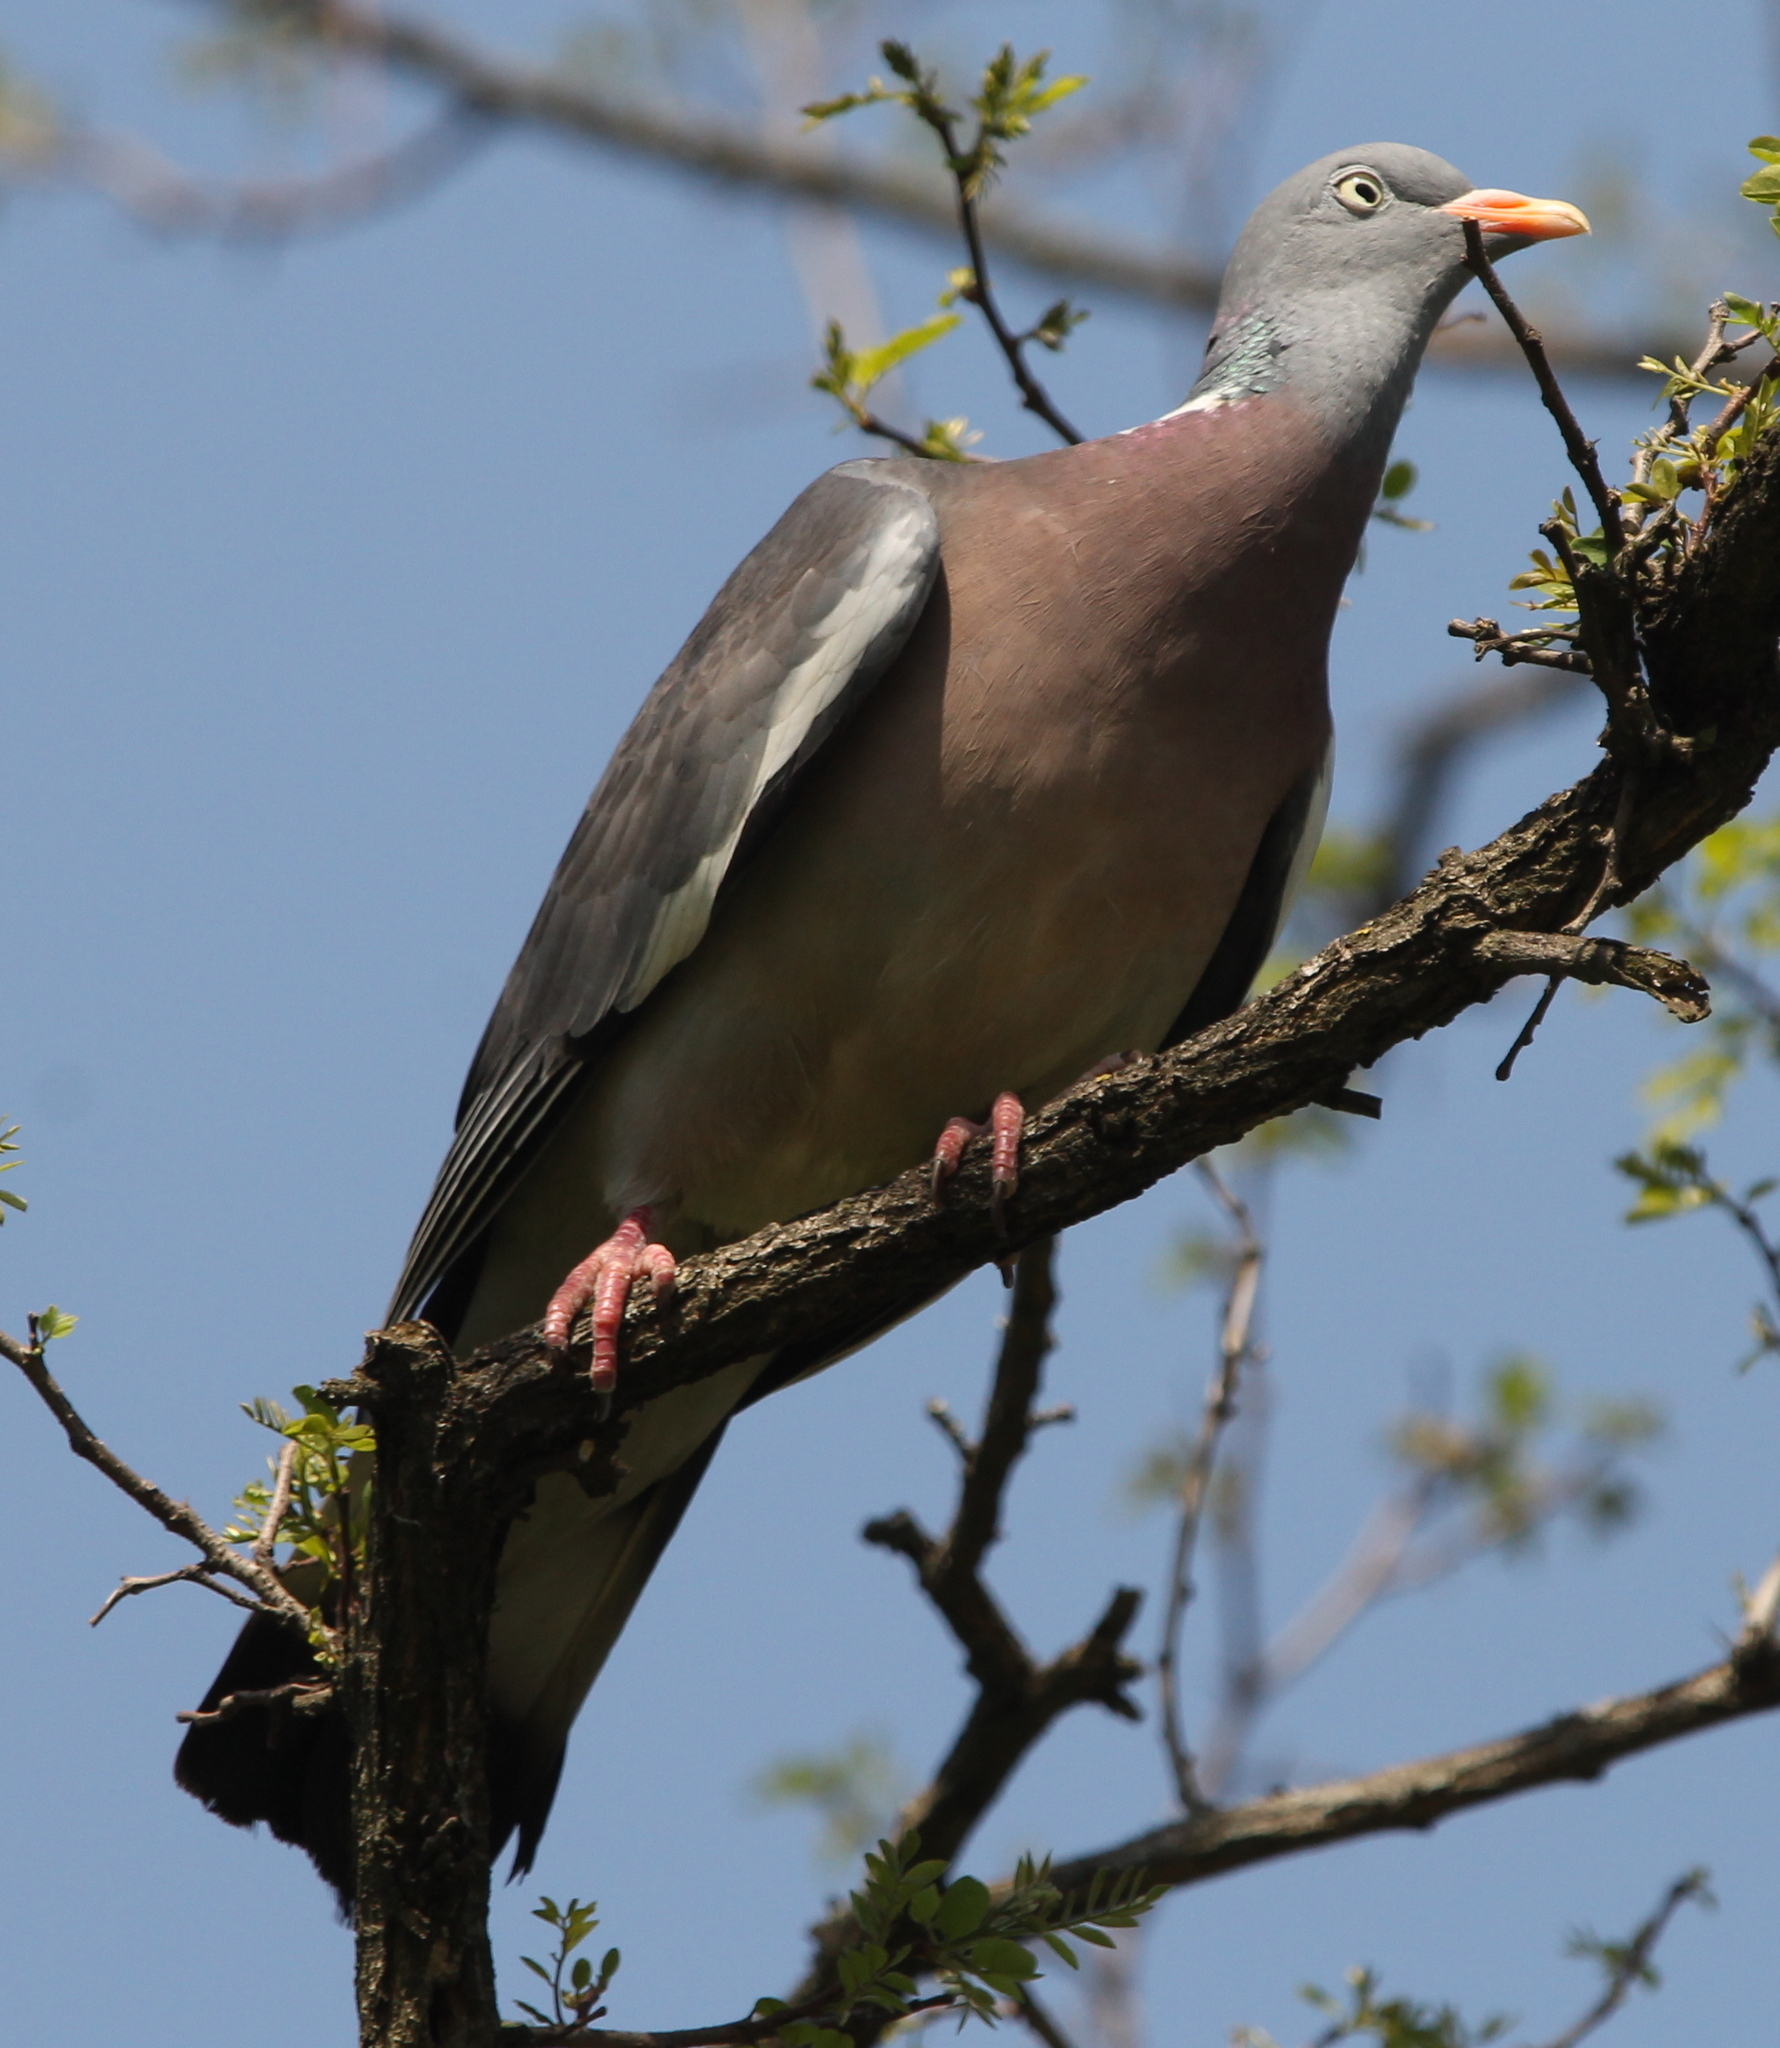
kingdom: Animalia
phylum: Chordata
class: Aves
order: Columbiformes
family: Columbidae
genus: Columba
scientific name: Columba palumbus
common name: Common wood pigeon
